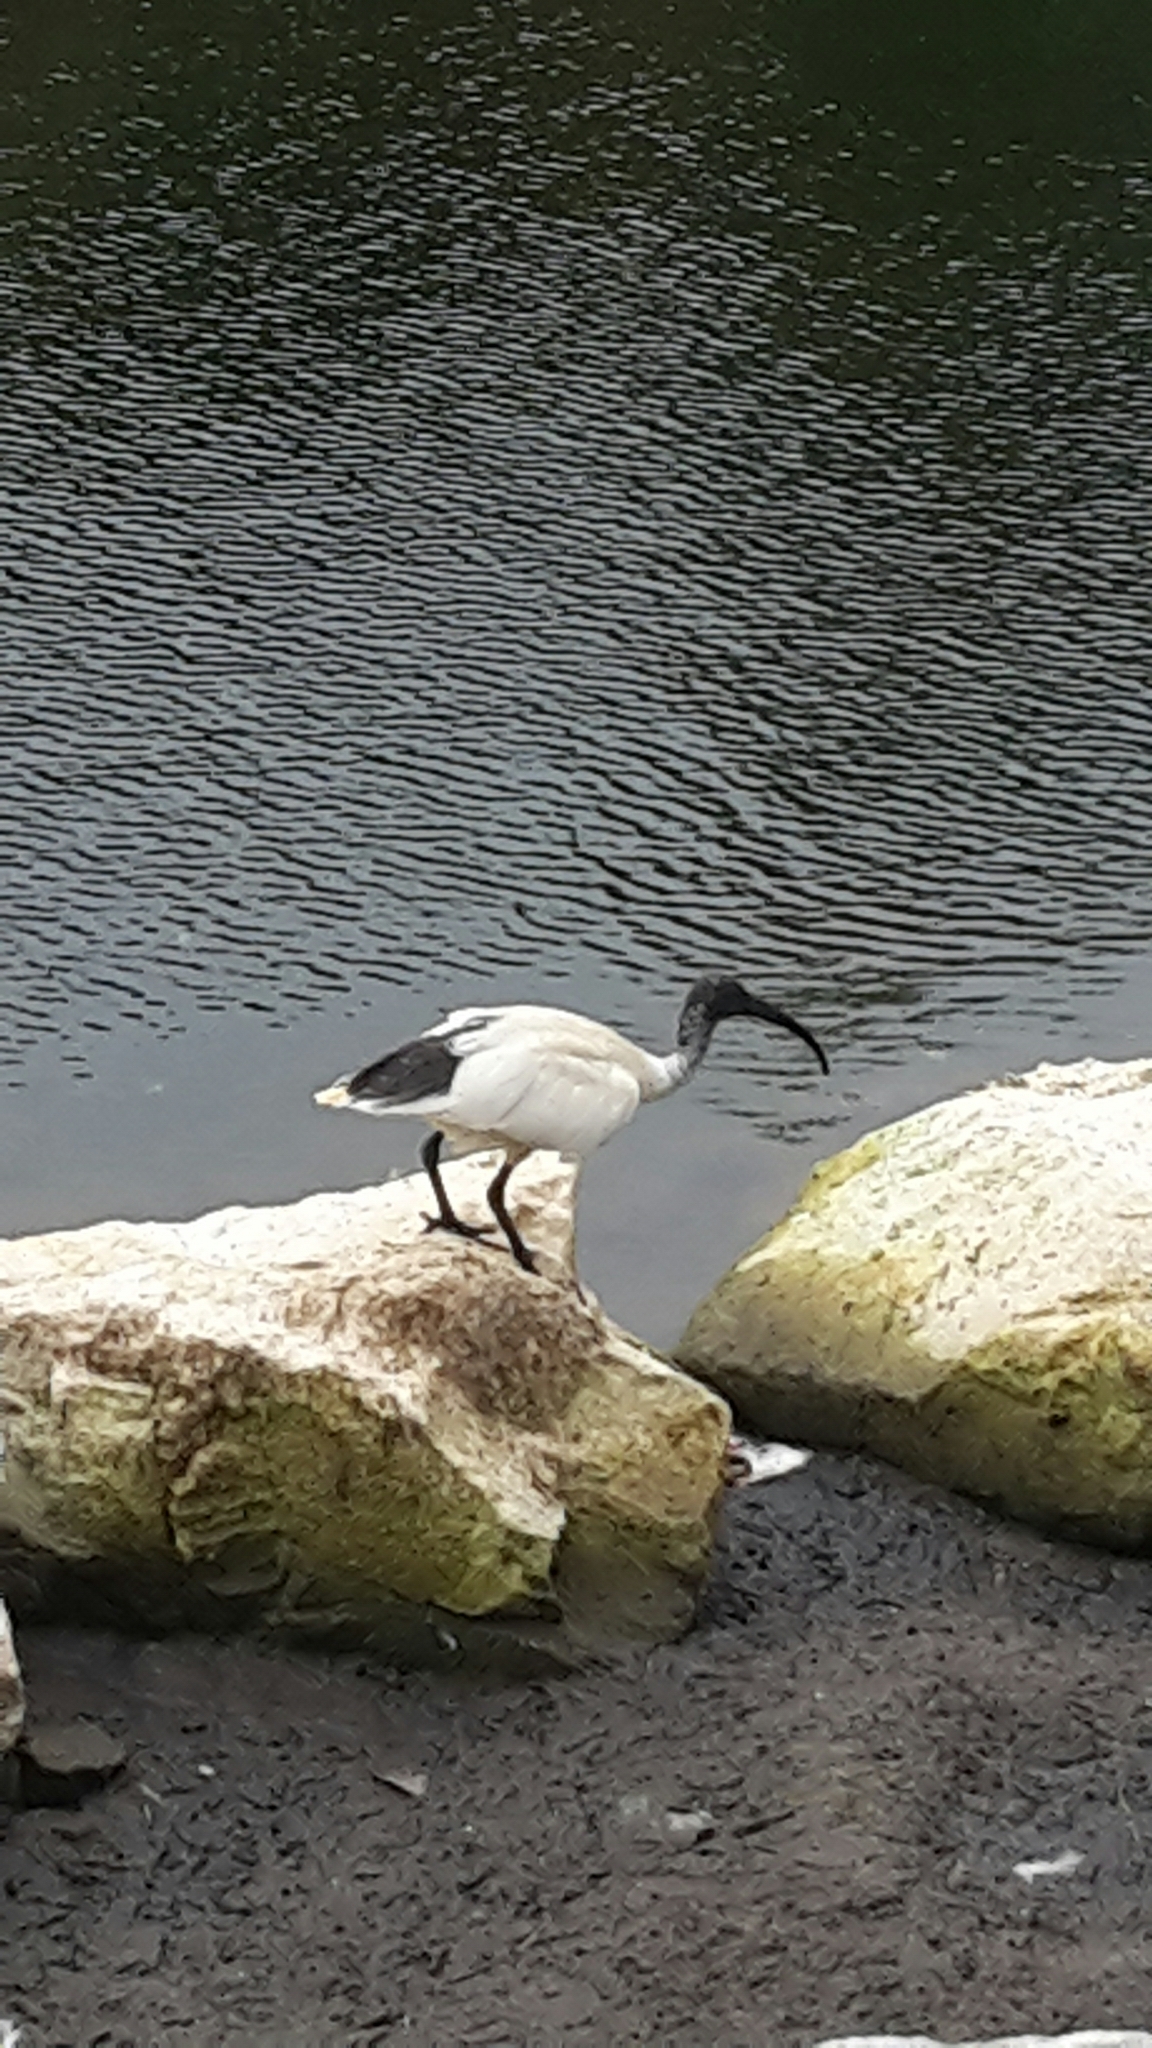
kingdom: Animalia
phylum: Chordata
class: Aves
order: Pelecaniformes
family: Threskiornithidae
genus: Threskiornis
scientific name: Threskiornis molucca
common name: Australian white ibis
